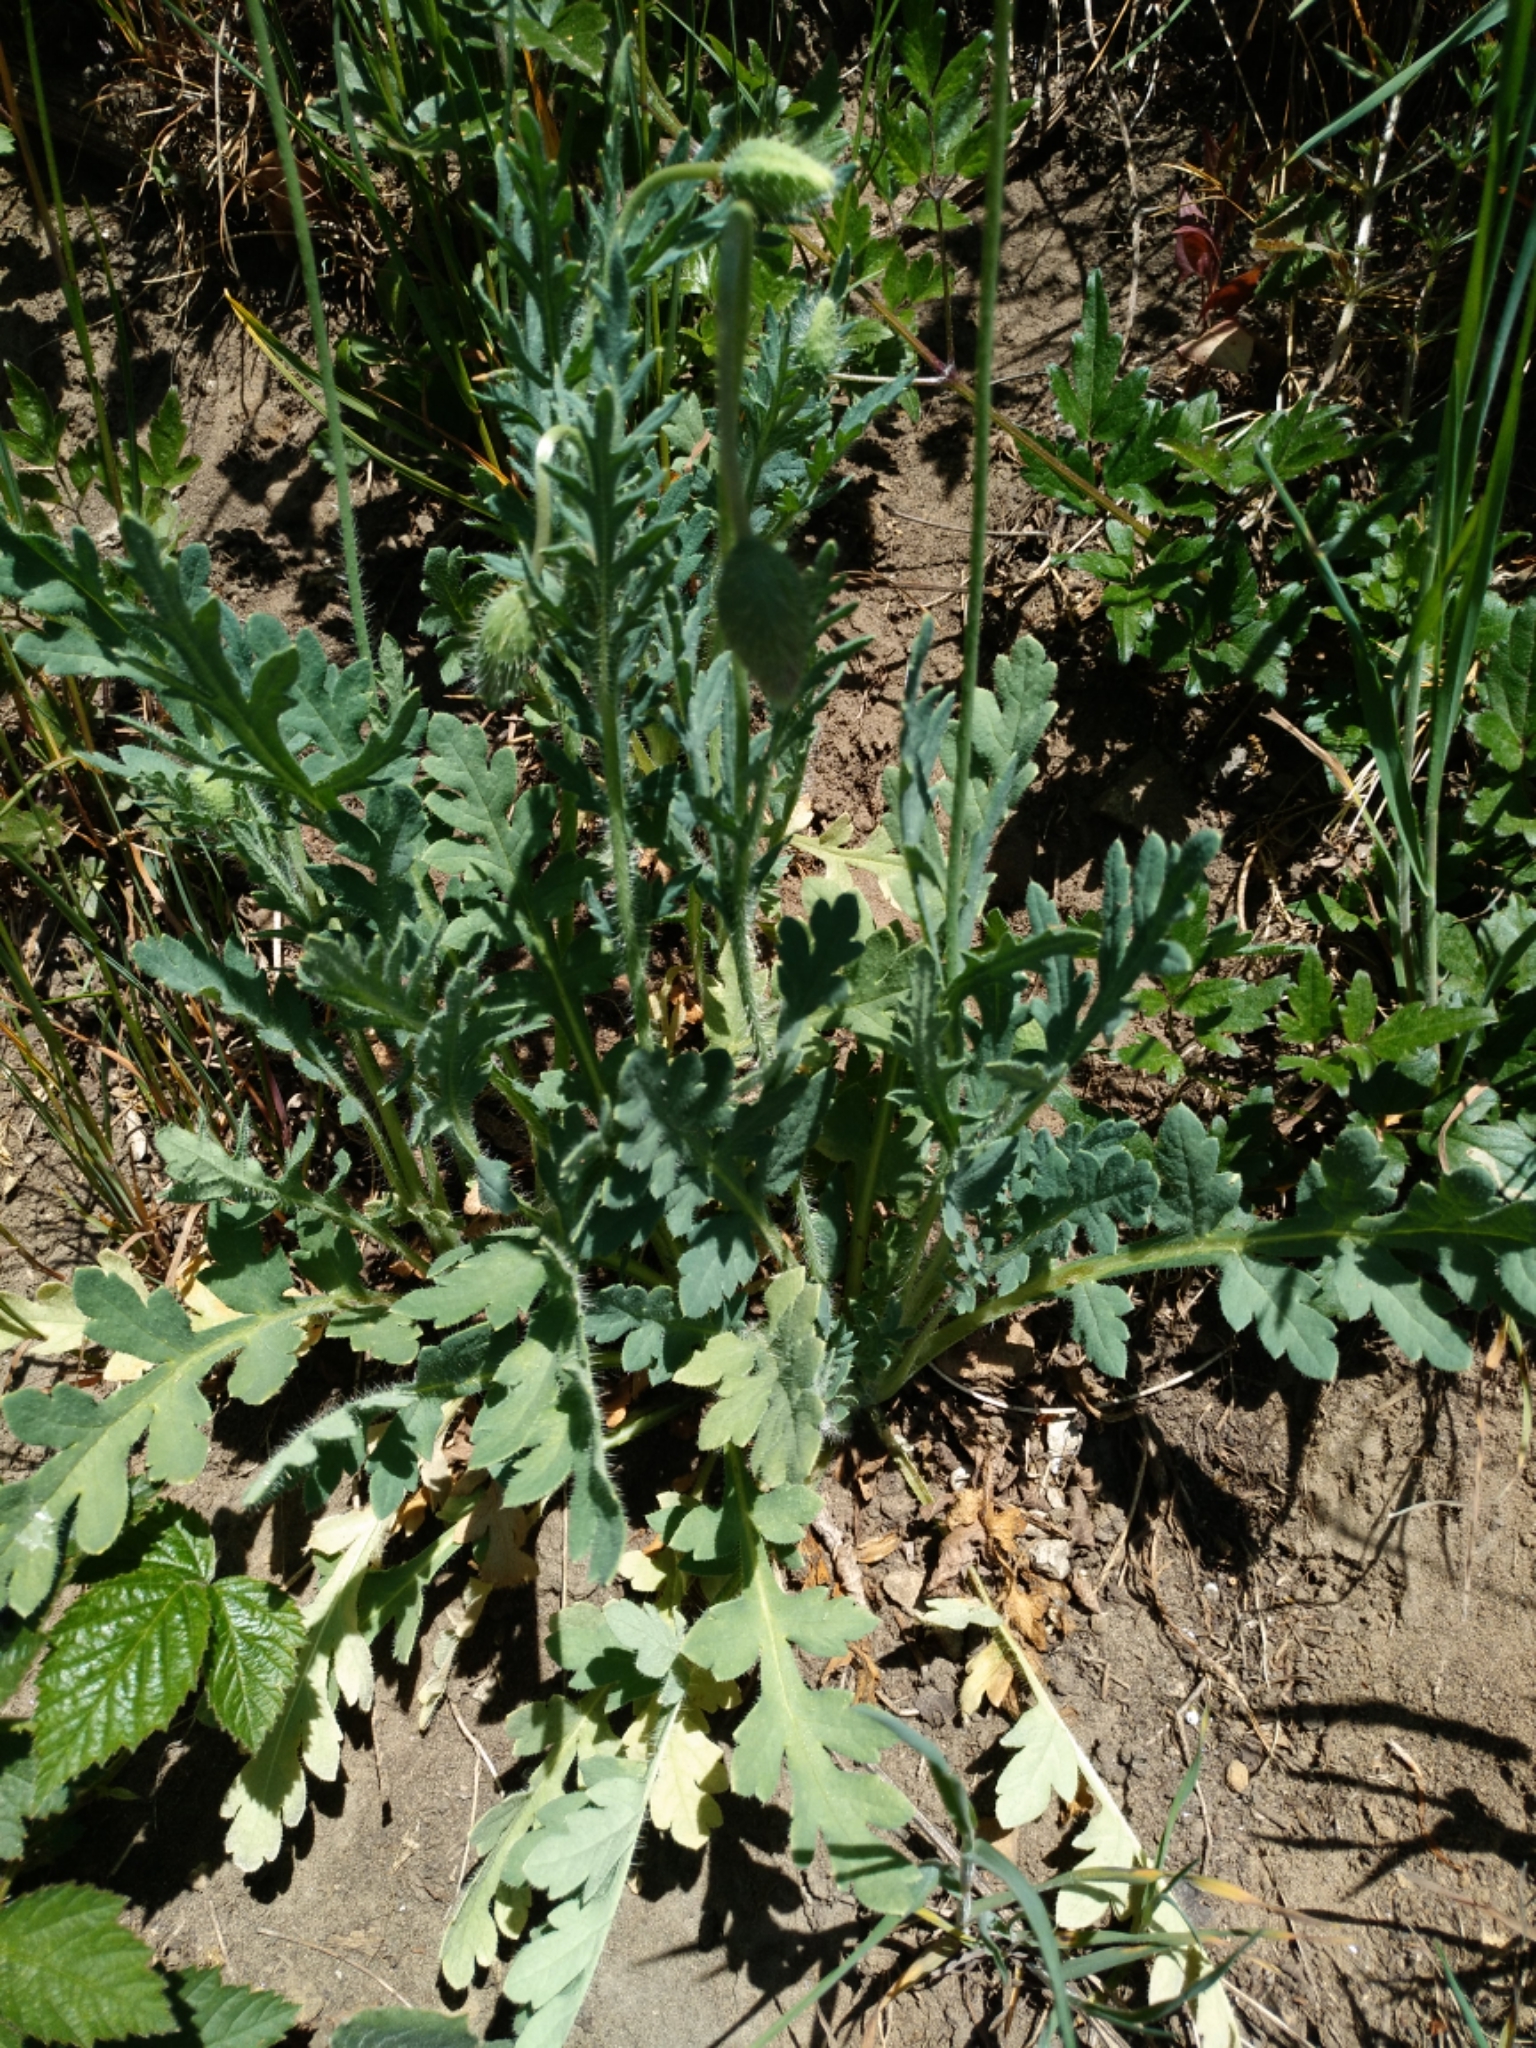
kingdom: Plantae
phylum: Tracheophyta
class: Magnoliopsida
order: Ranunculales
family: Papaveraceae
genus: Papaver
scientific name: Papaver rhoeas
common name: Corn poppy
